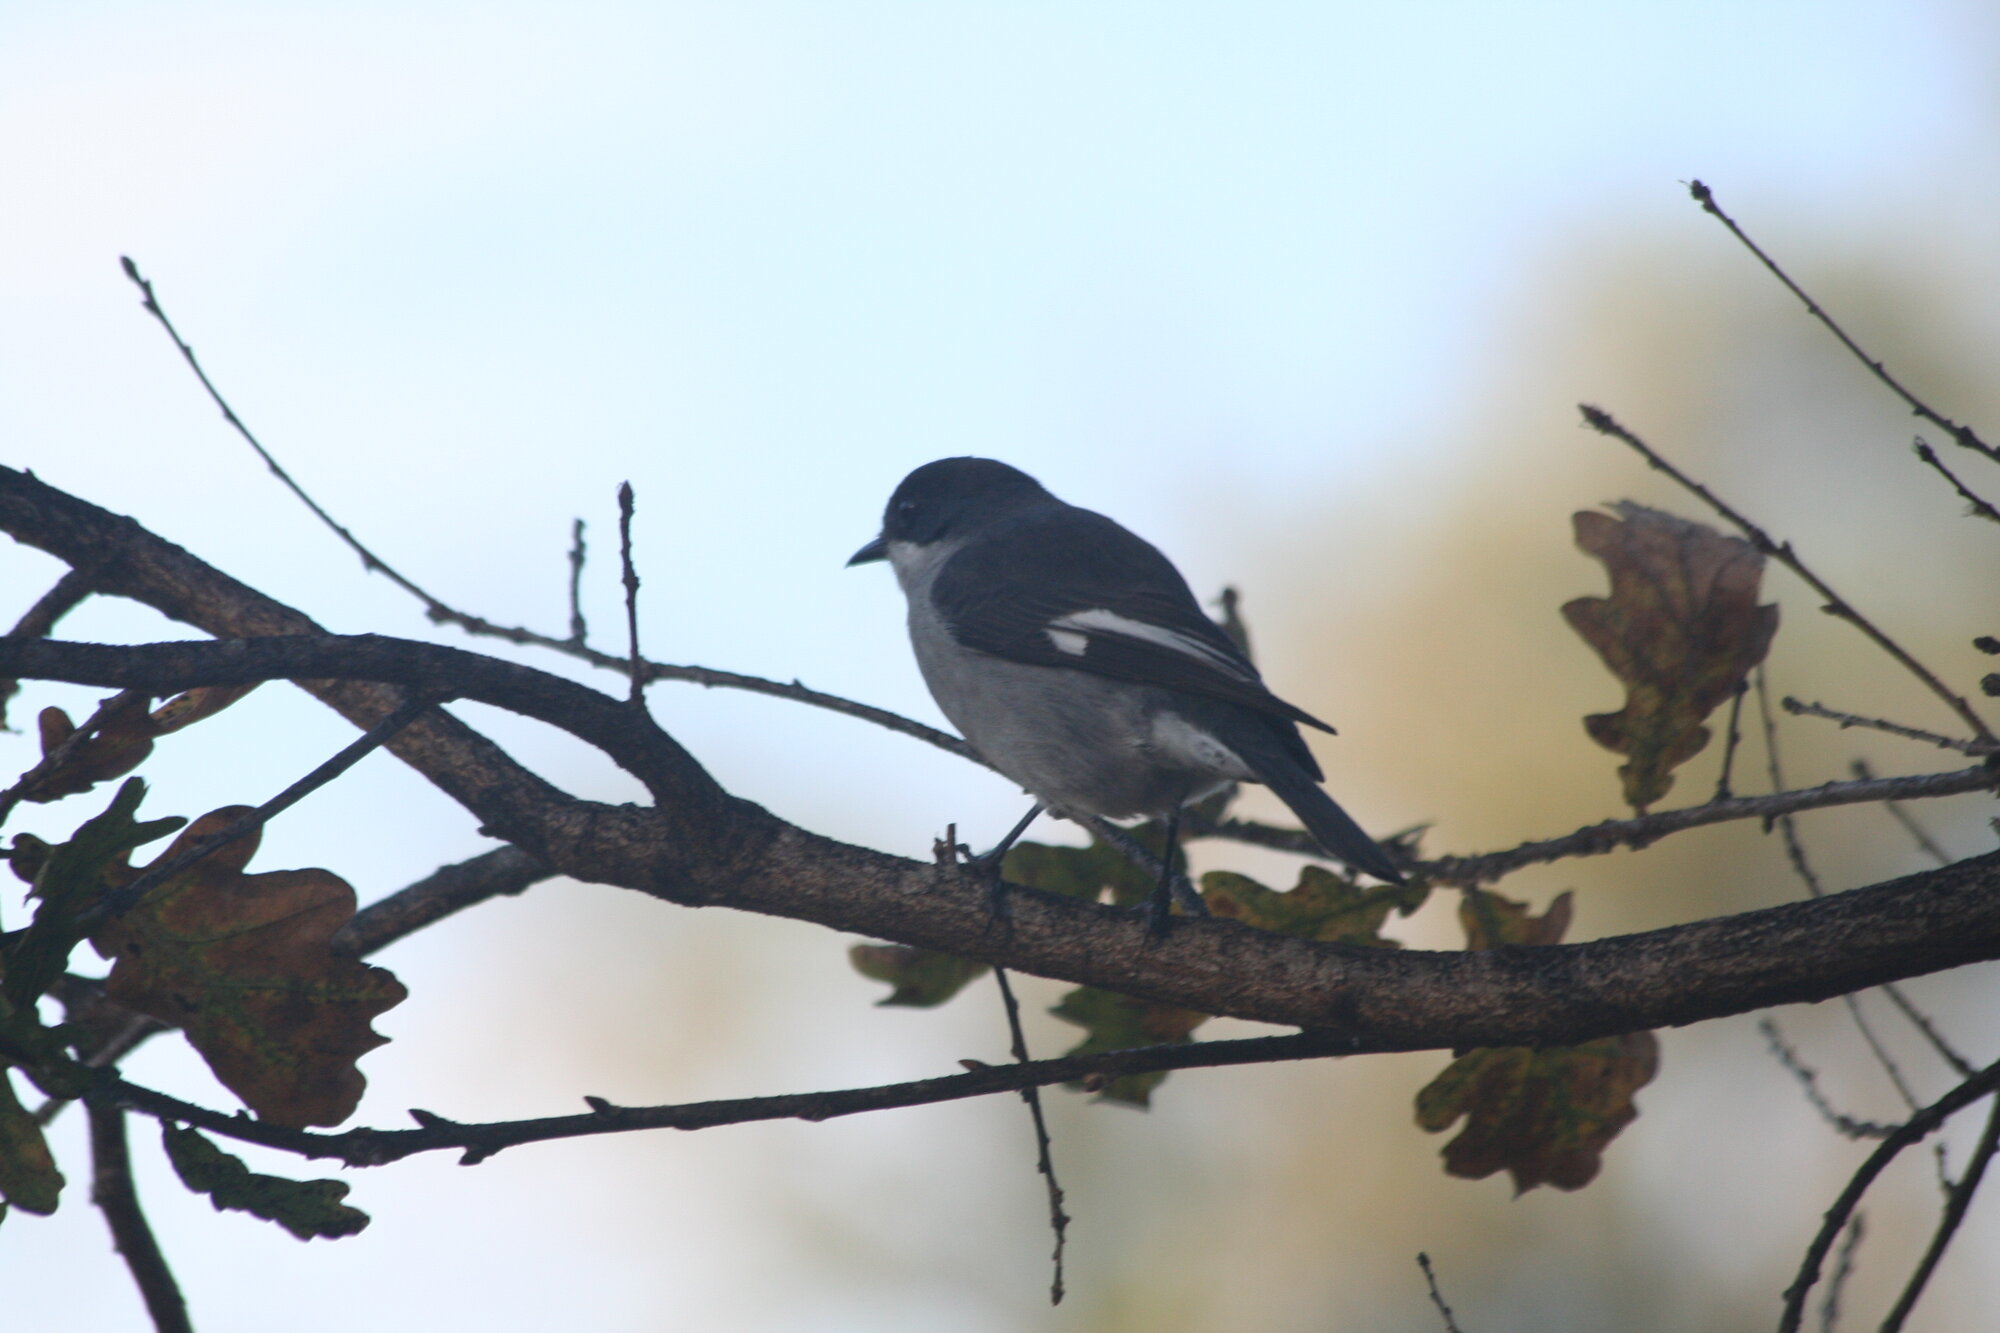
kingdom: Animalia
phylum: Chordata
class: Aves
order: Passeriformes
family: Muscicapidae
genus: Sigelus
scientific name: Sigelus silens
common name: Fiscal flycatcher
